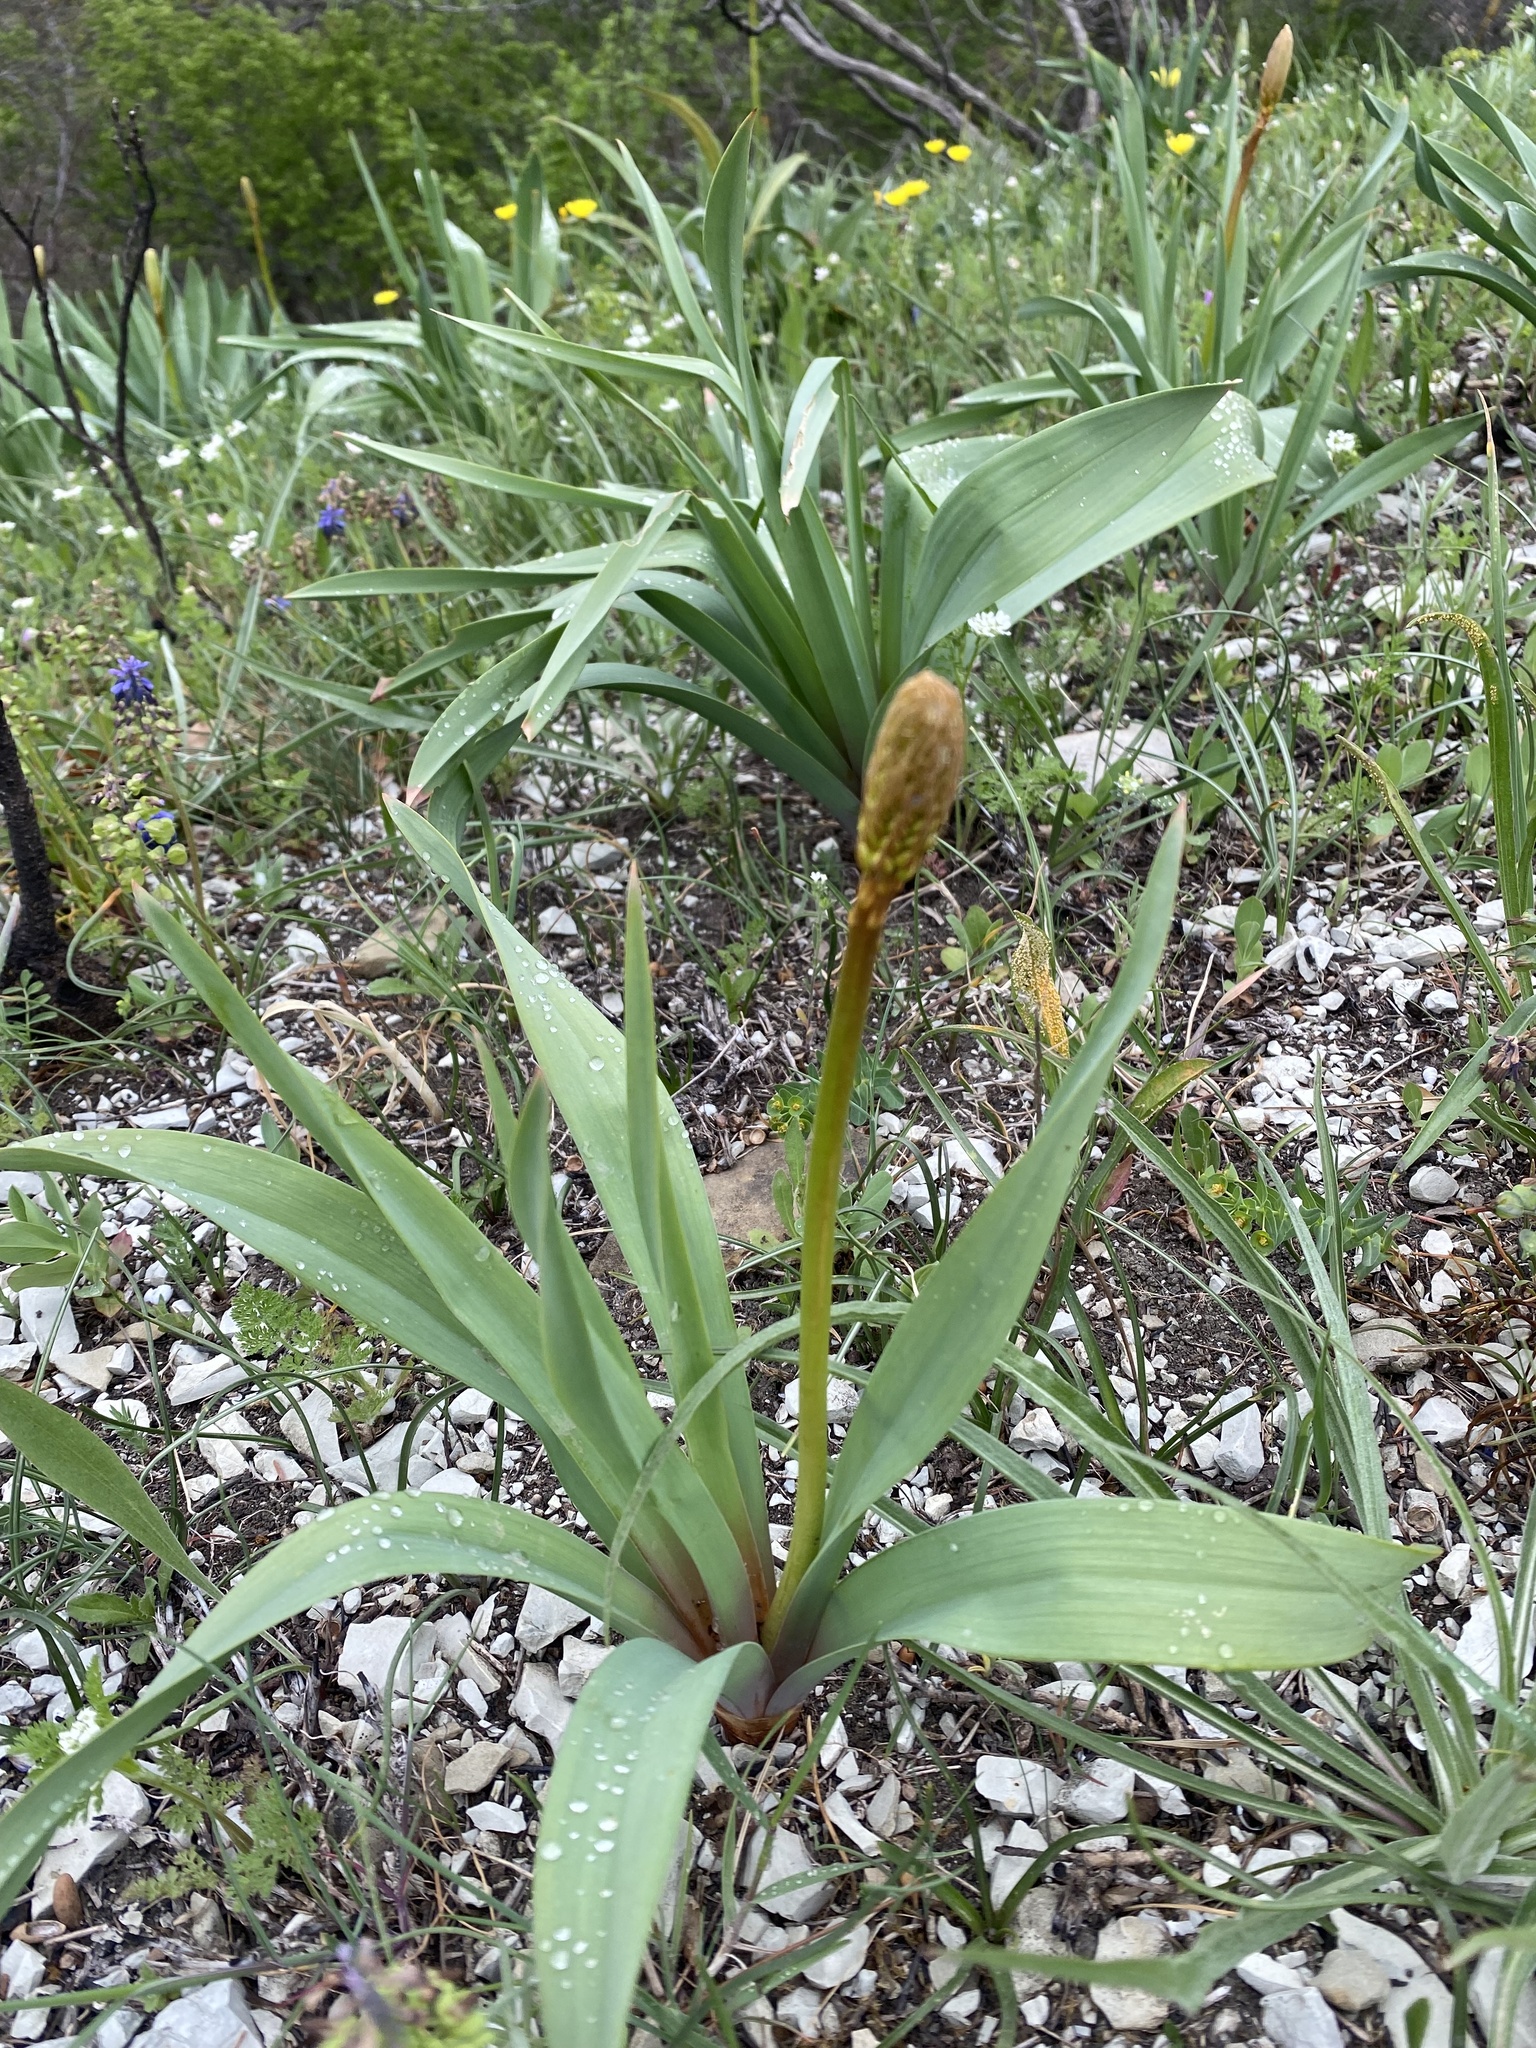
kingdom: Plantae
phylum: Tracheophyta
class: Liliopsida
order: Asparagales
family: Asphodelaceae
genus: Eremurus
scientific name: Eremurus spectabilis
